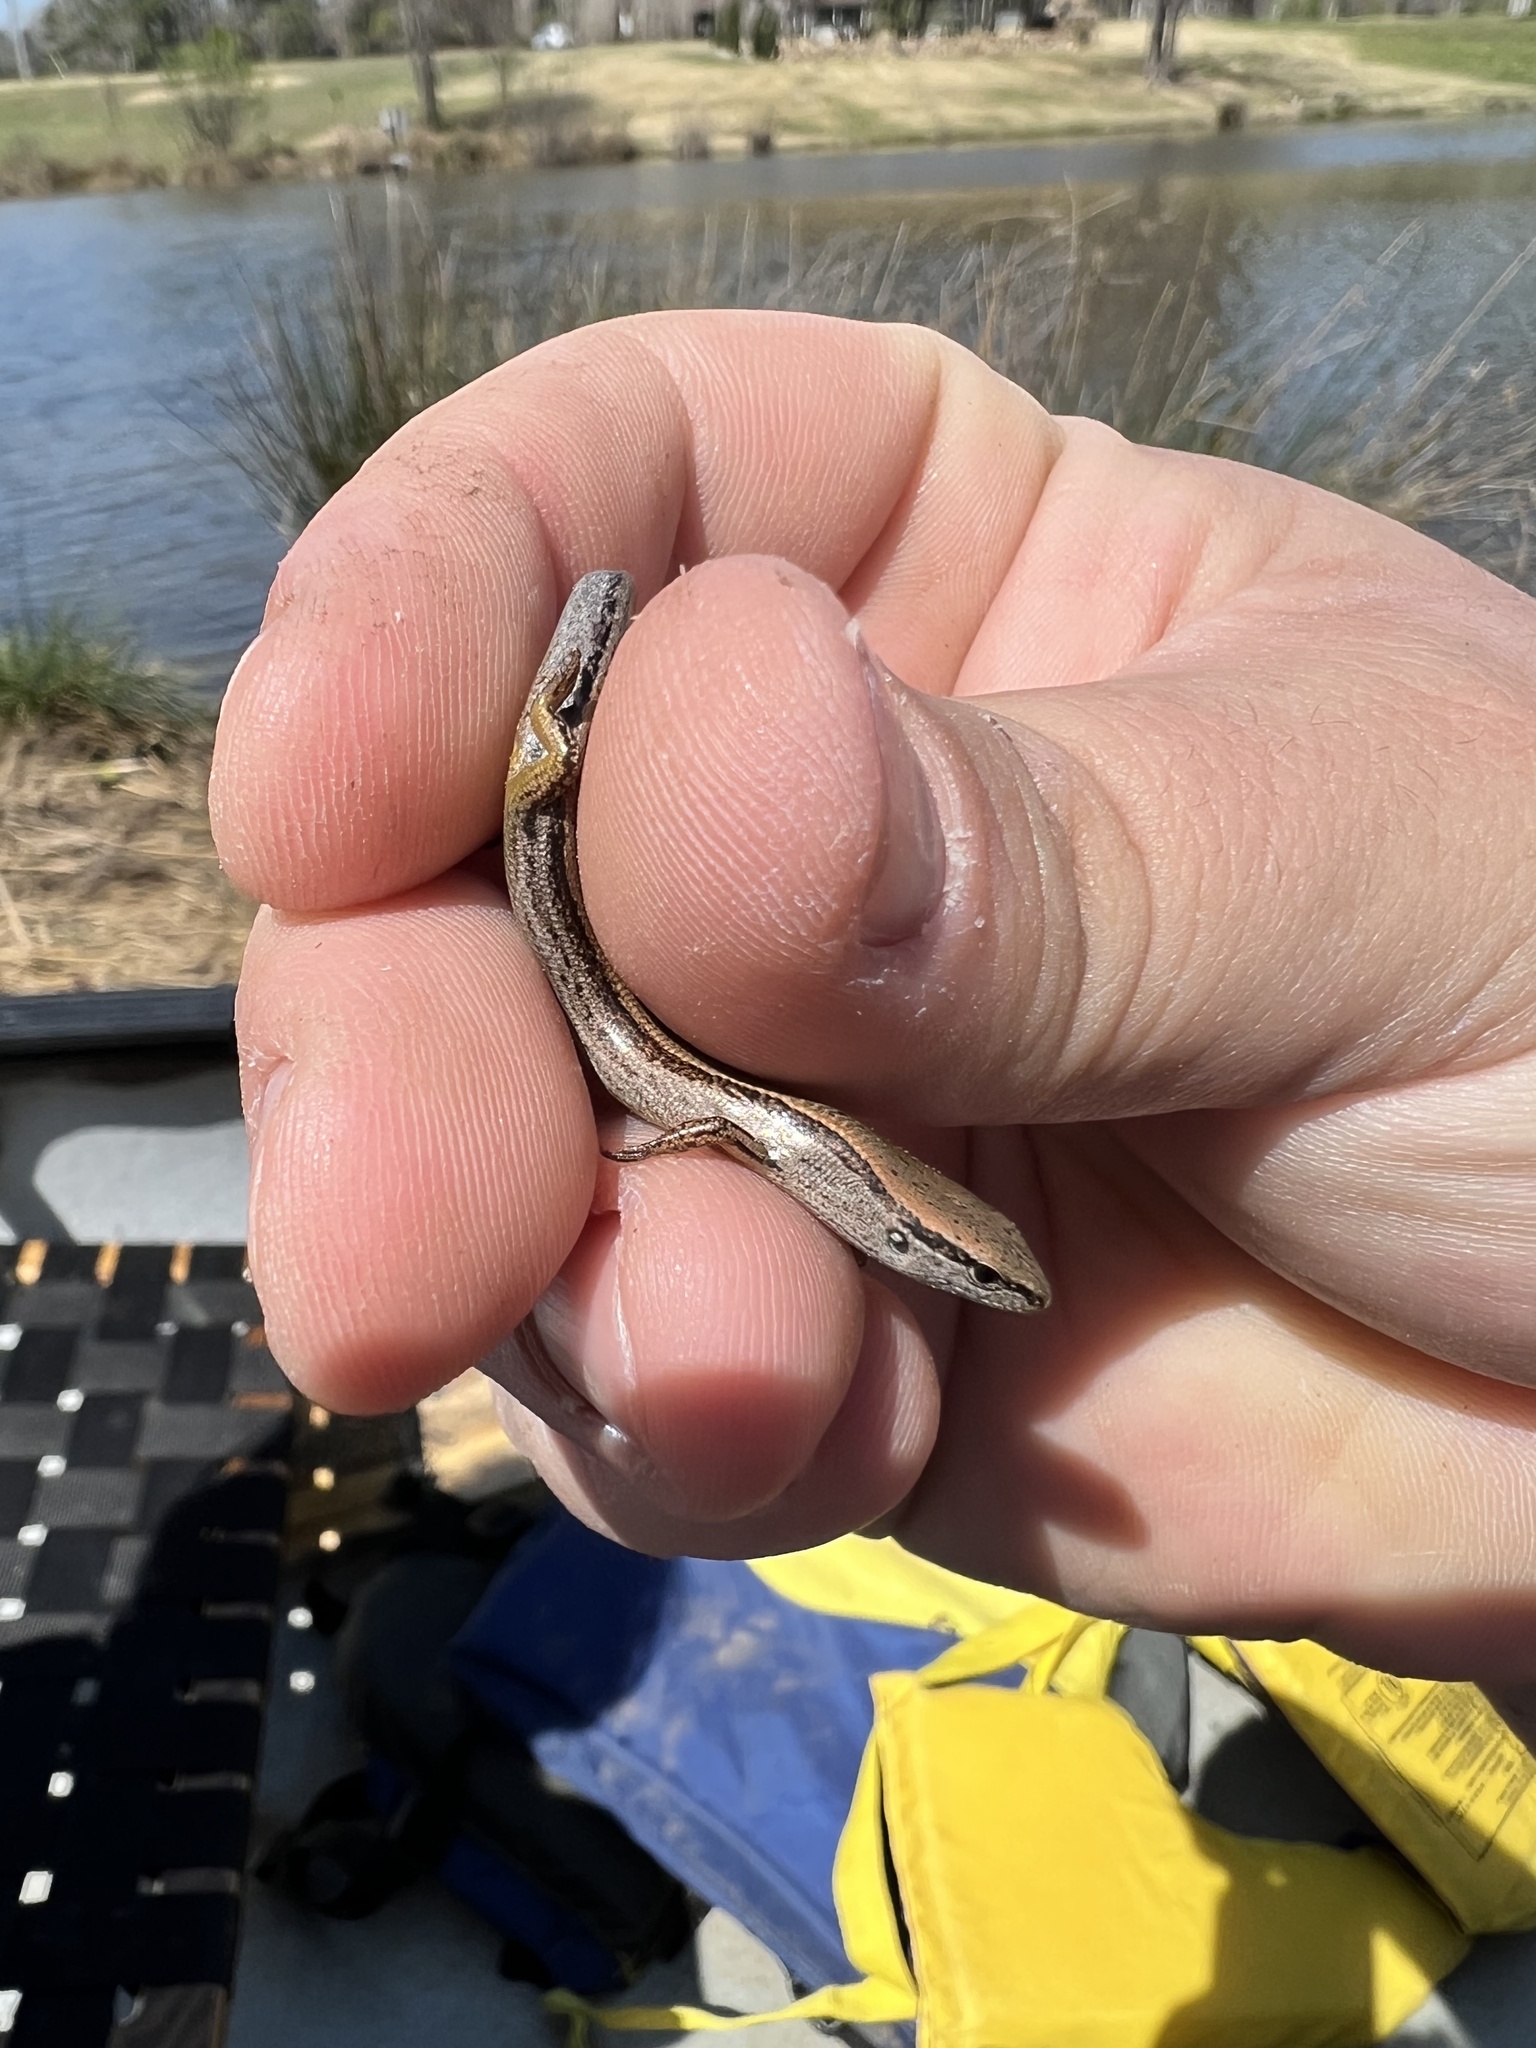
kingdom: Animalia
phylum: Chordata
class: Squamata
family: Scincidae
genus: Scincella
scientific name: Scincella lateralis
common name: Ground skink
